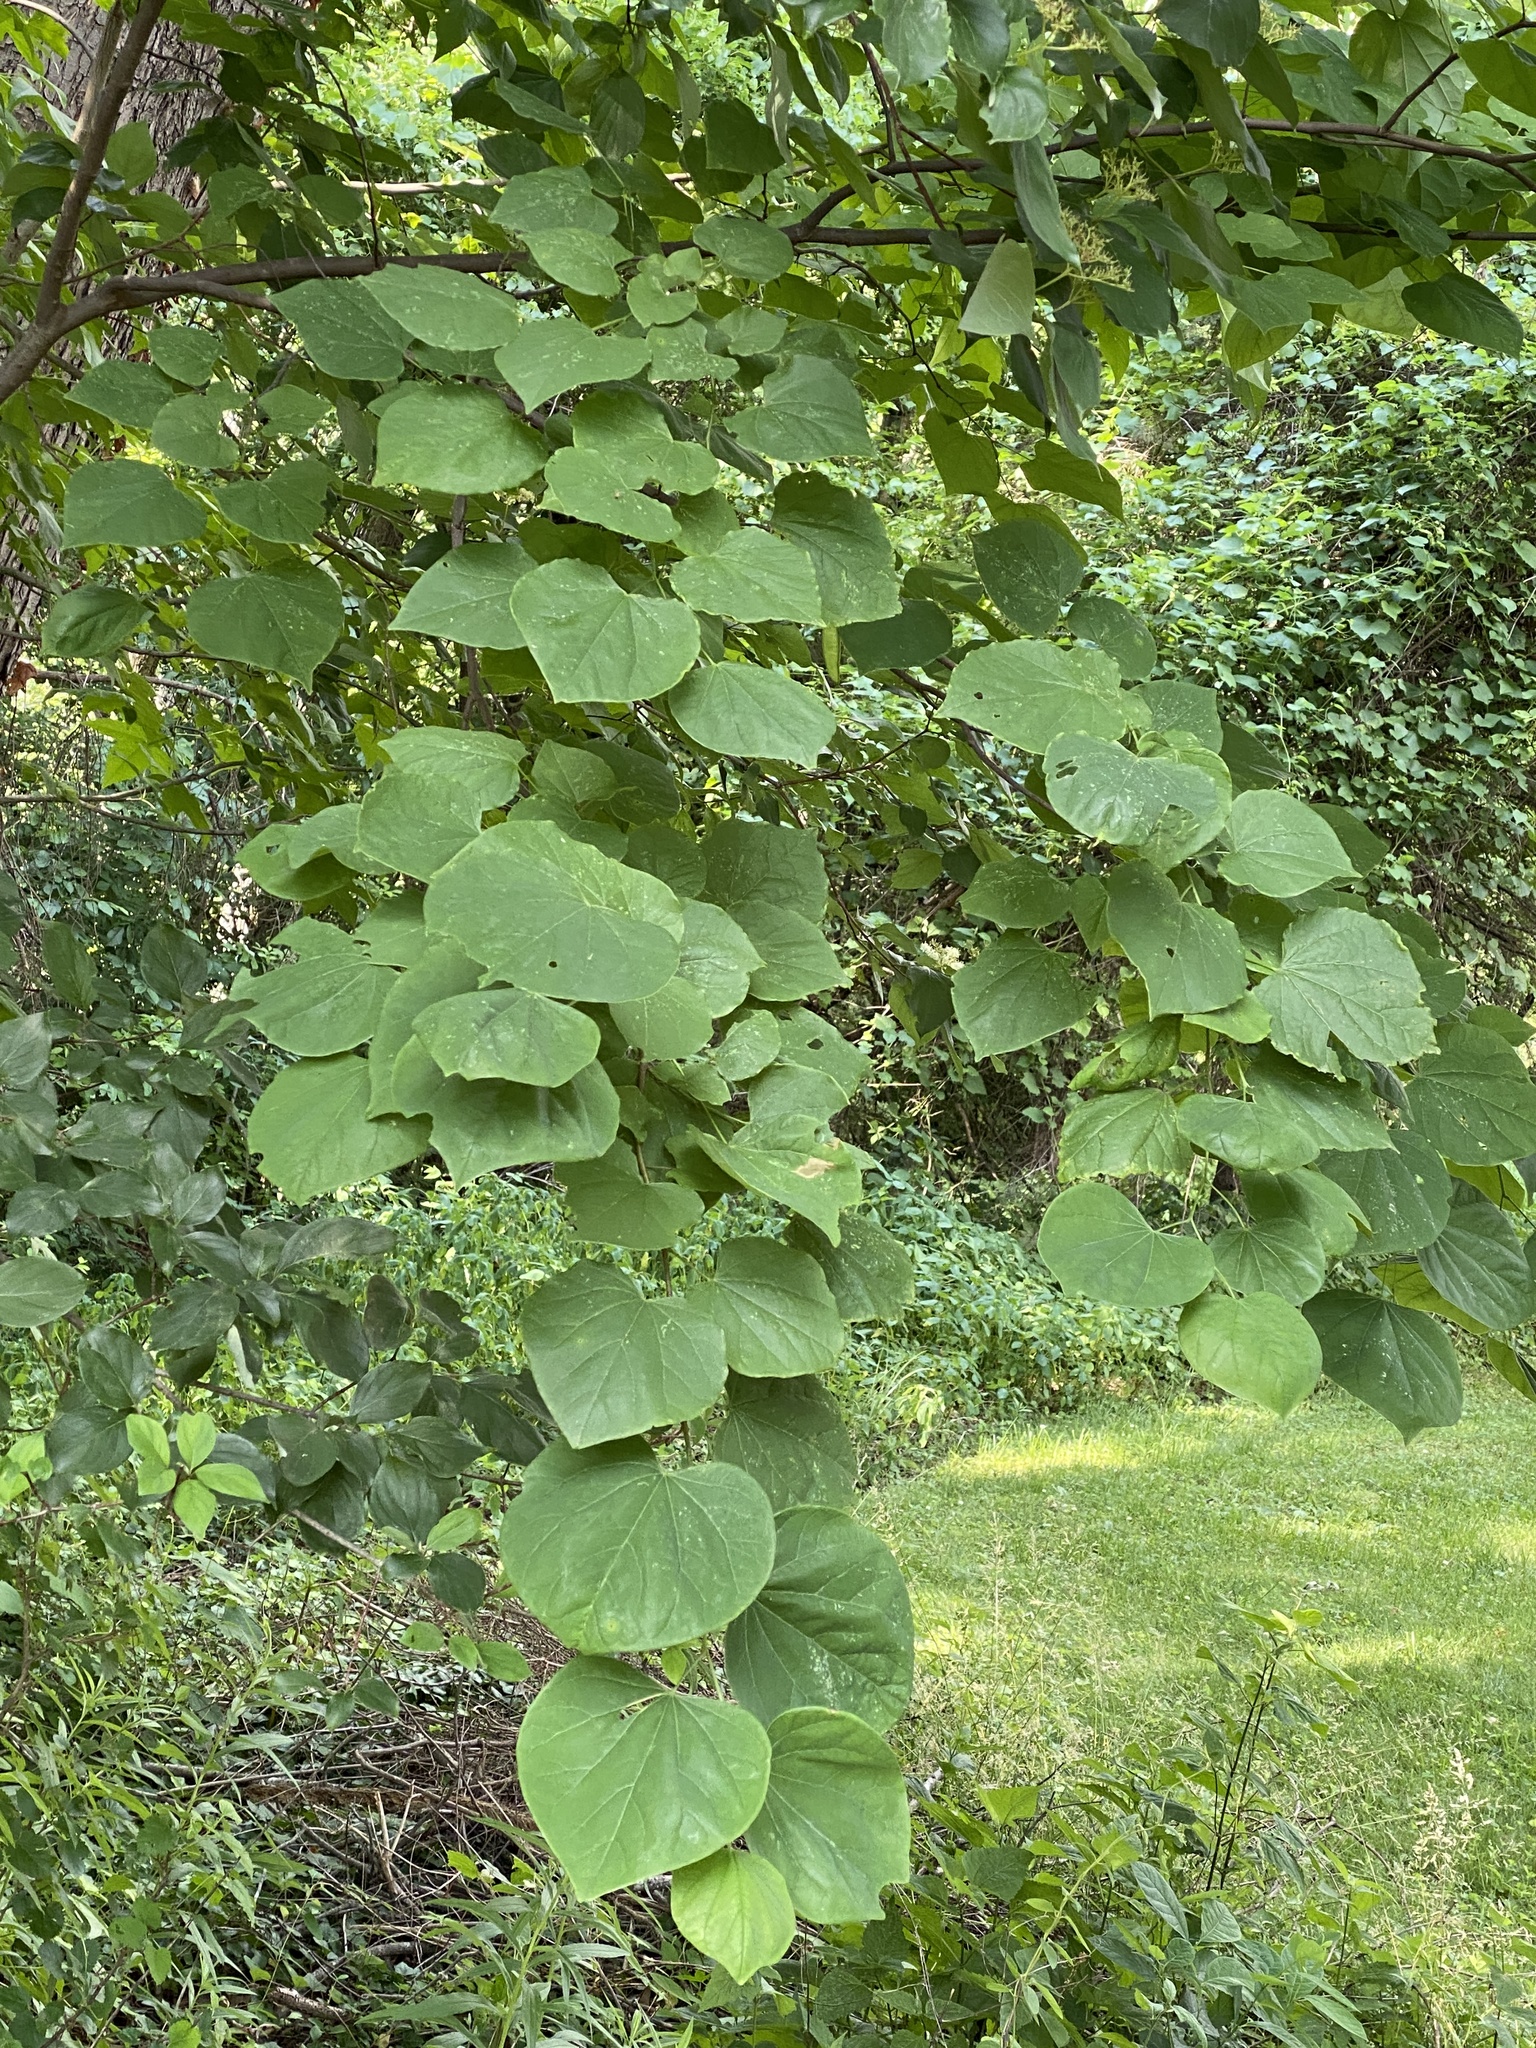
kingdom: Plantae
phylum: Tracheophyta
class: Magnoliopsida
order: Fabales
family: Fabaceae
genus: Cercis
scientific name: Cercis canadensis
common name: Eastern redbud
